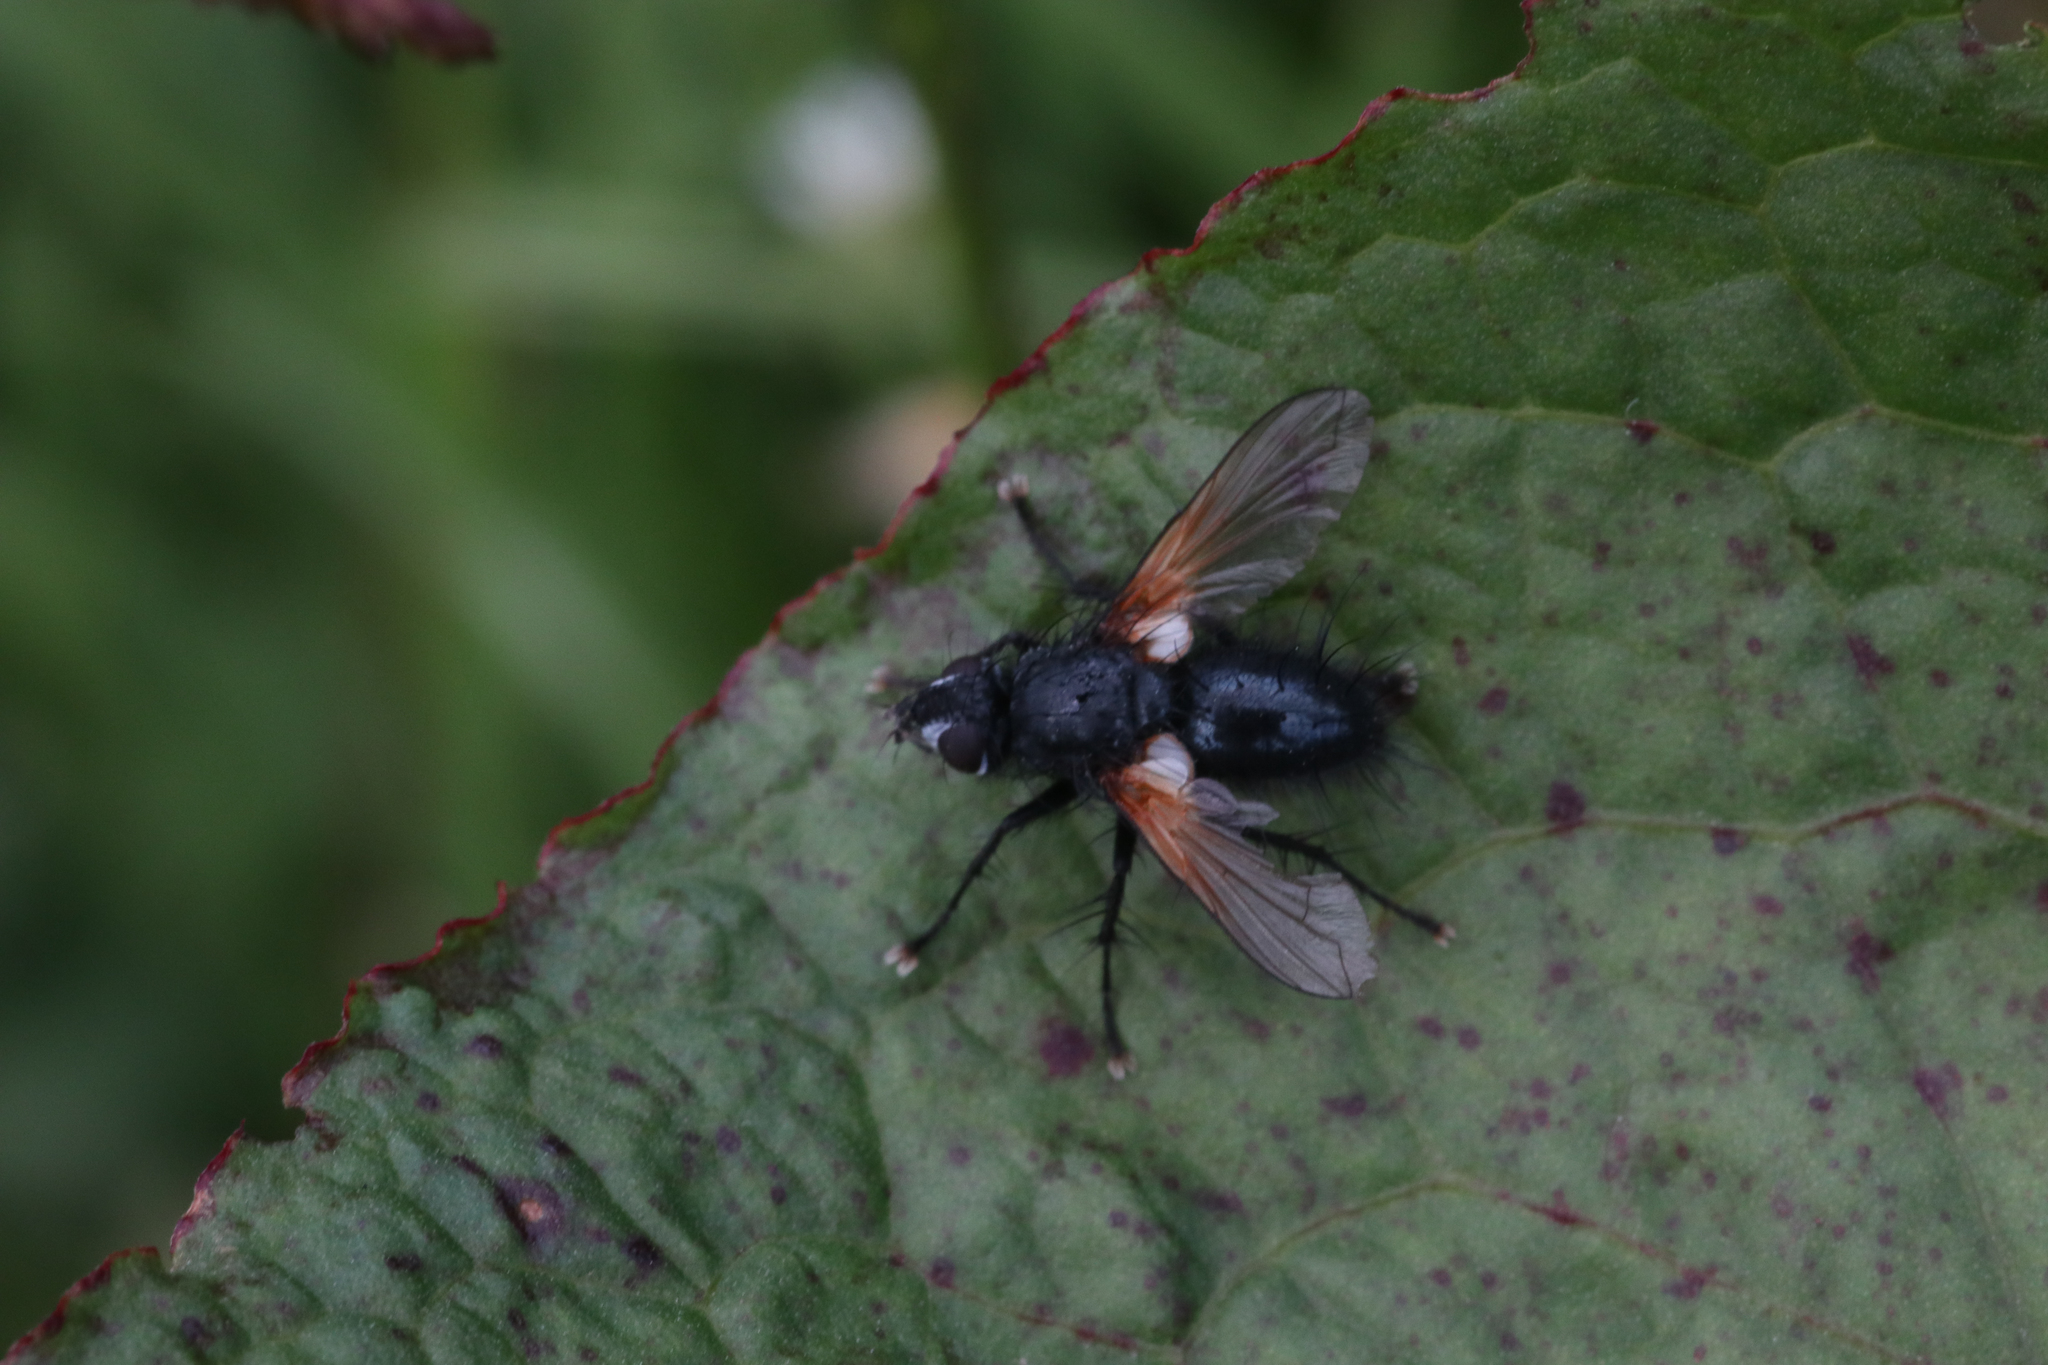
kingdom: Animalia
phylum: Arthropoda
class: Insecta
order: Diptera
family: Tachinidae
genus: Zophomyia
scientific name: Zophomyia temula
